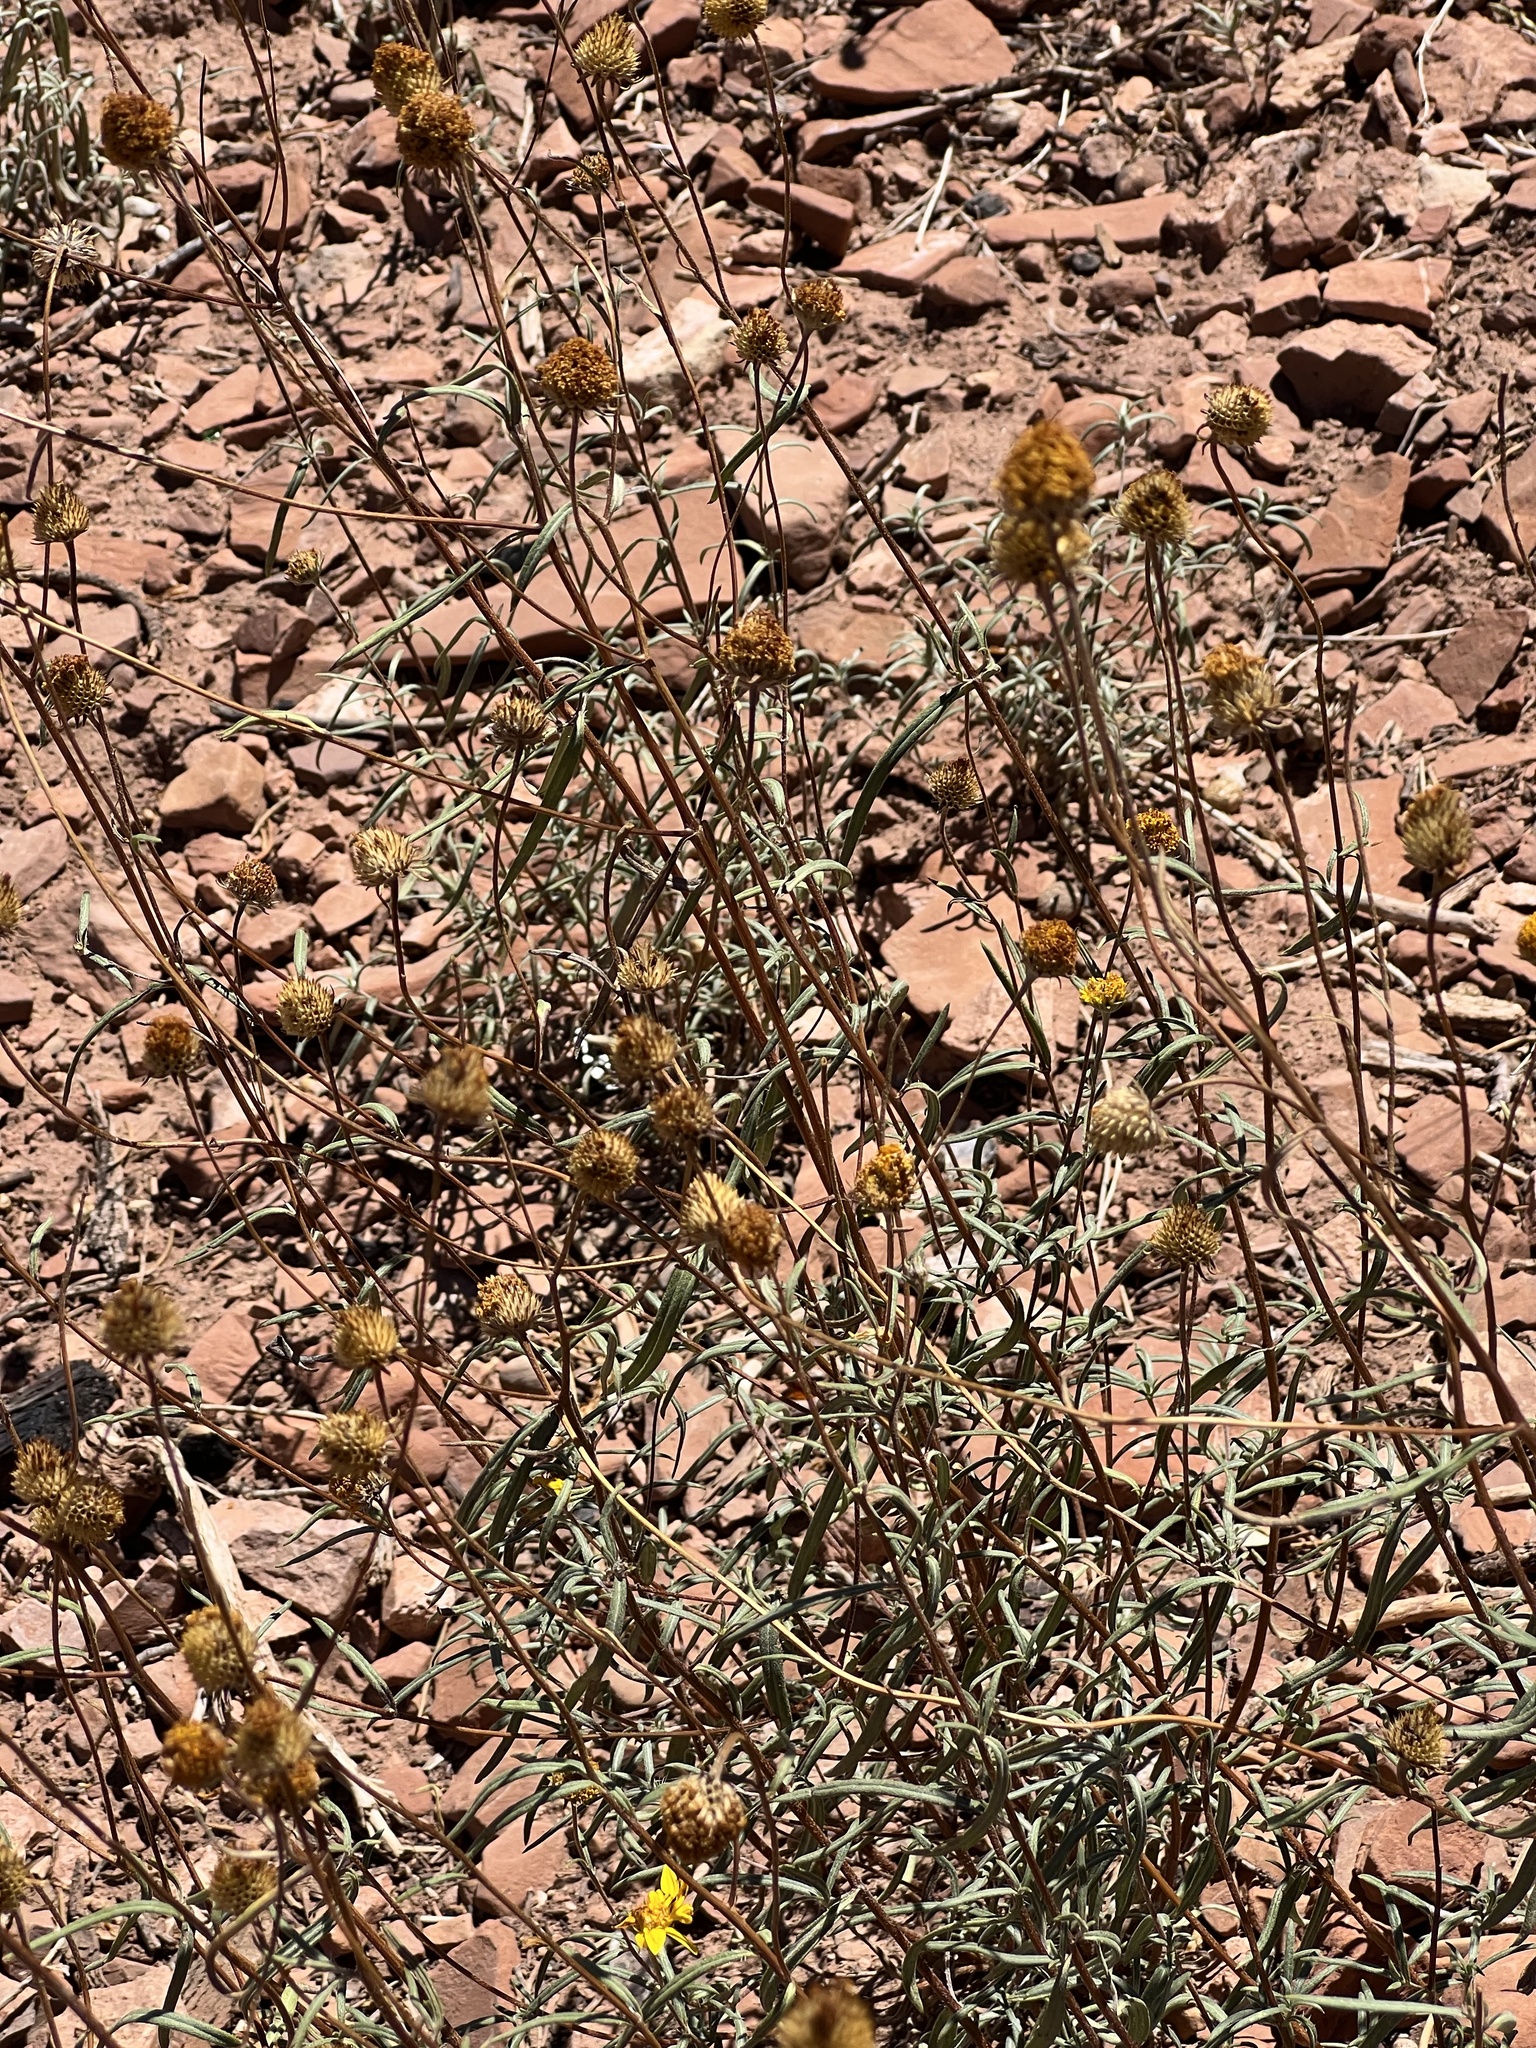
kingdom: Plantae
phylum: Tracheophyta
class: Magnoliopsida
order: Asterales
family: Asteraceae
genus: Heliomeris
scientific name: Heliomeris multiflora
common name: Showy goldeneye
